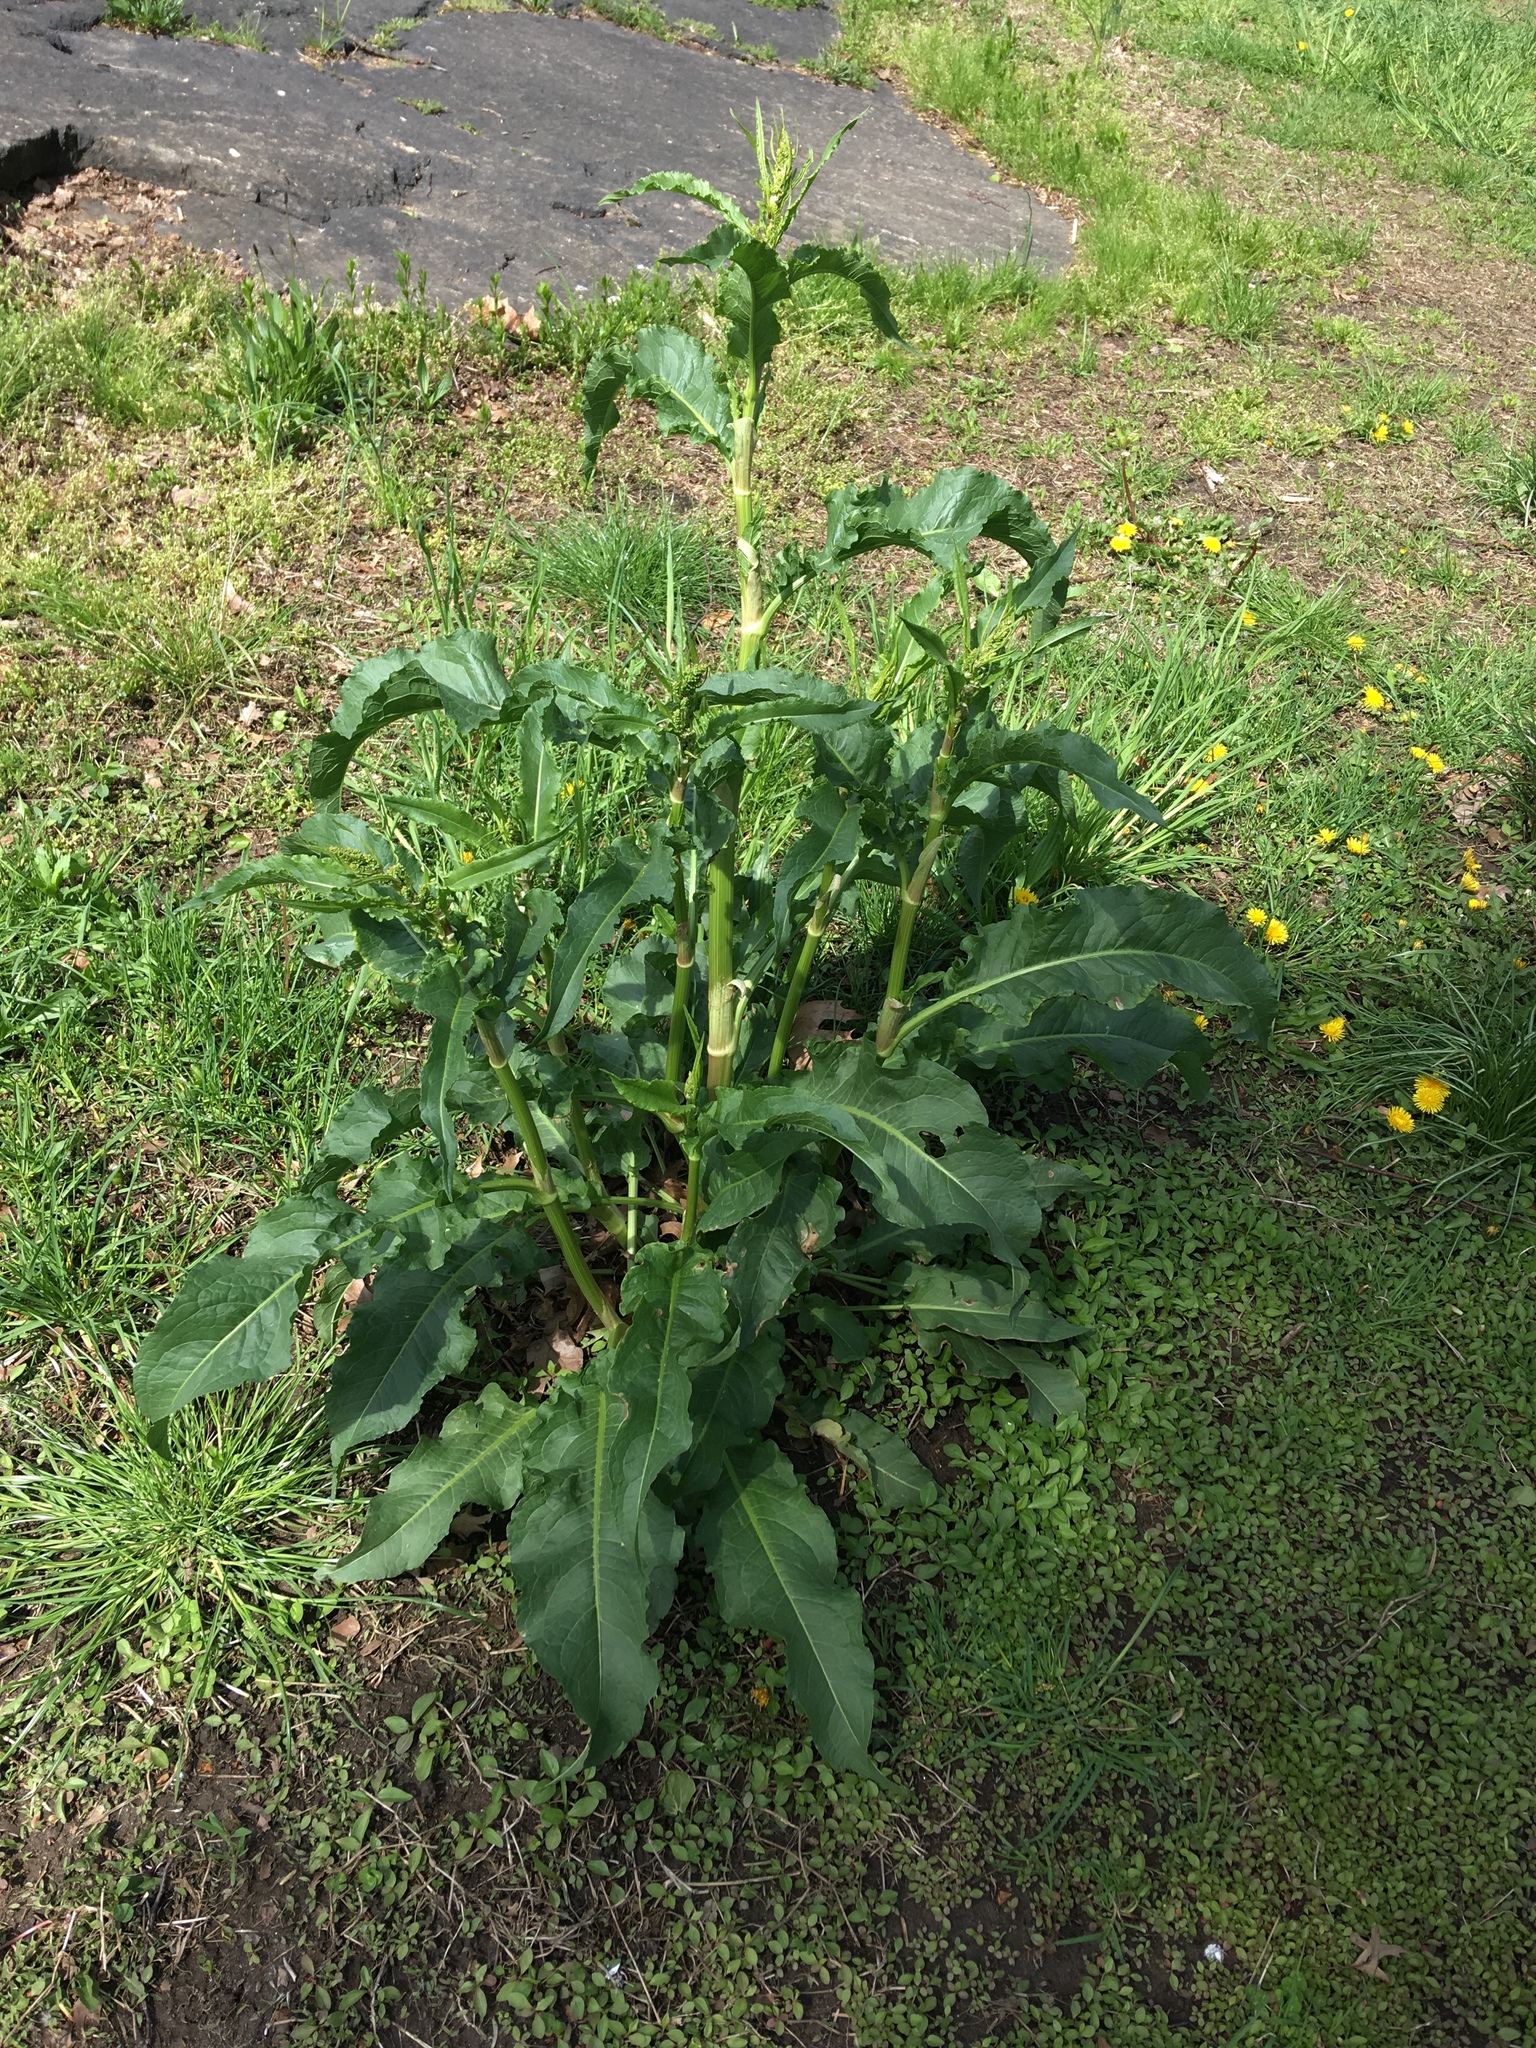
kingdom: Plantae
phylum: Tracheophyta
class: Magnoliopsida
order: Caryophyllales
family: Polygonaceae
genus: Rumex
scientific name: Rumex crispus
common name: Curled dock
